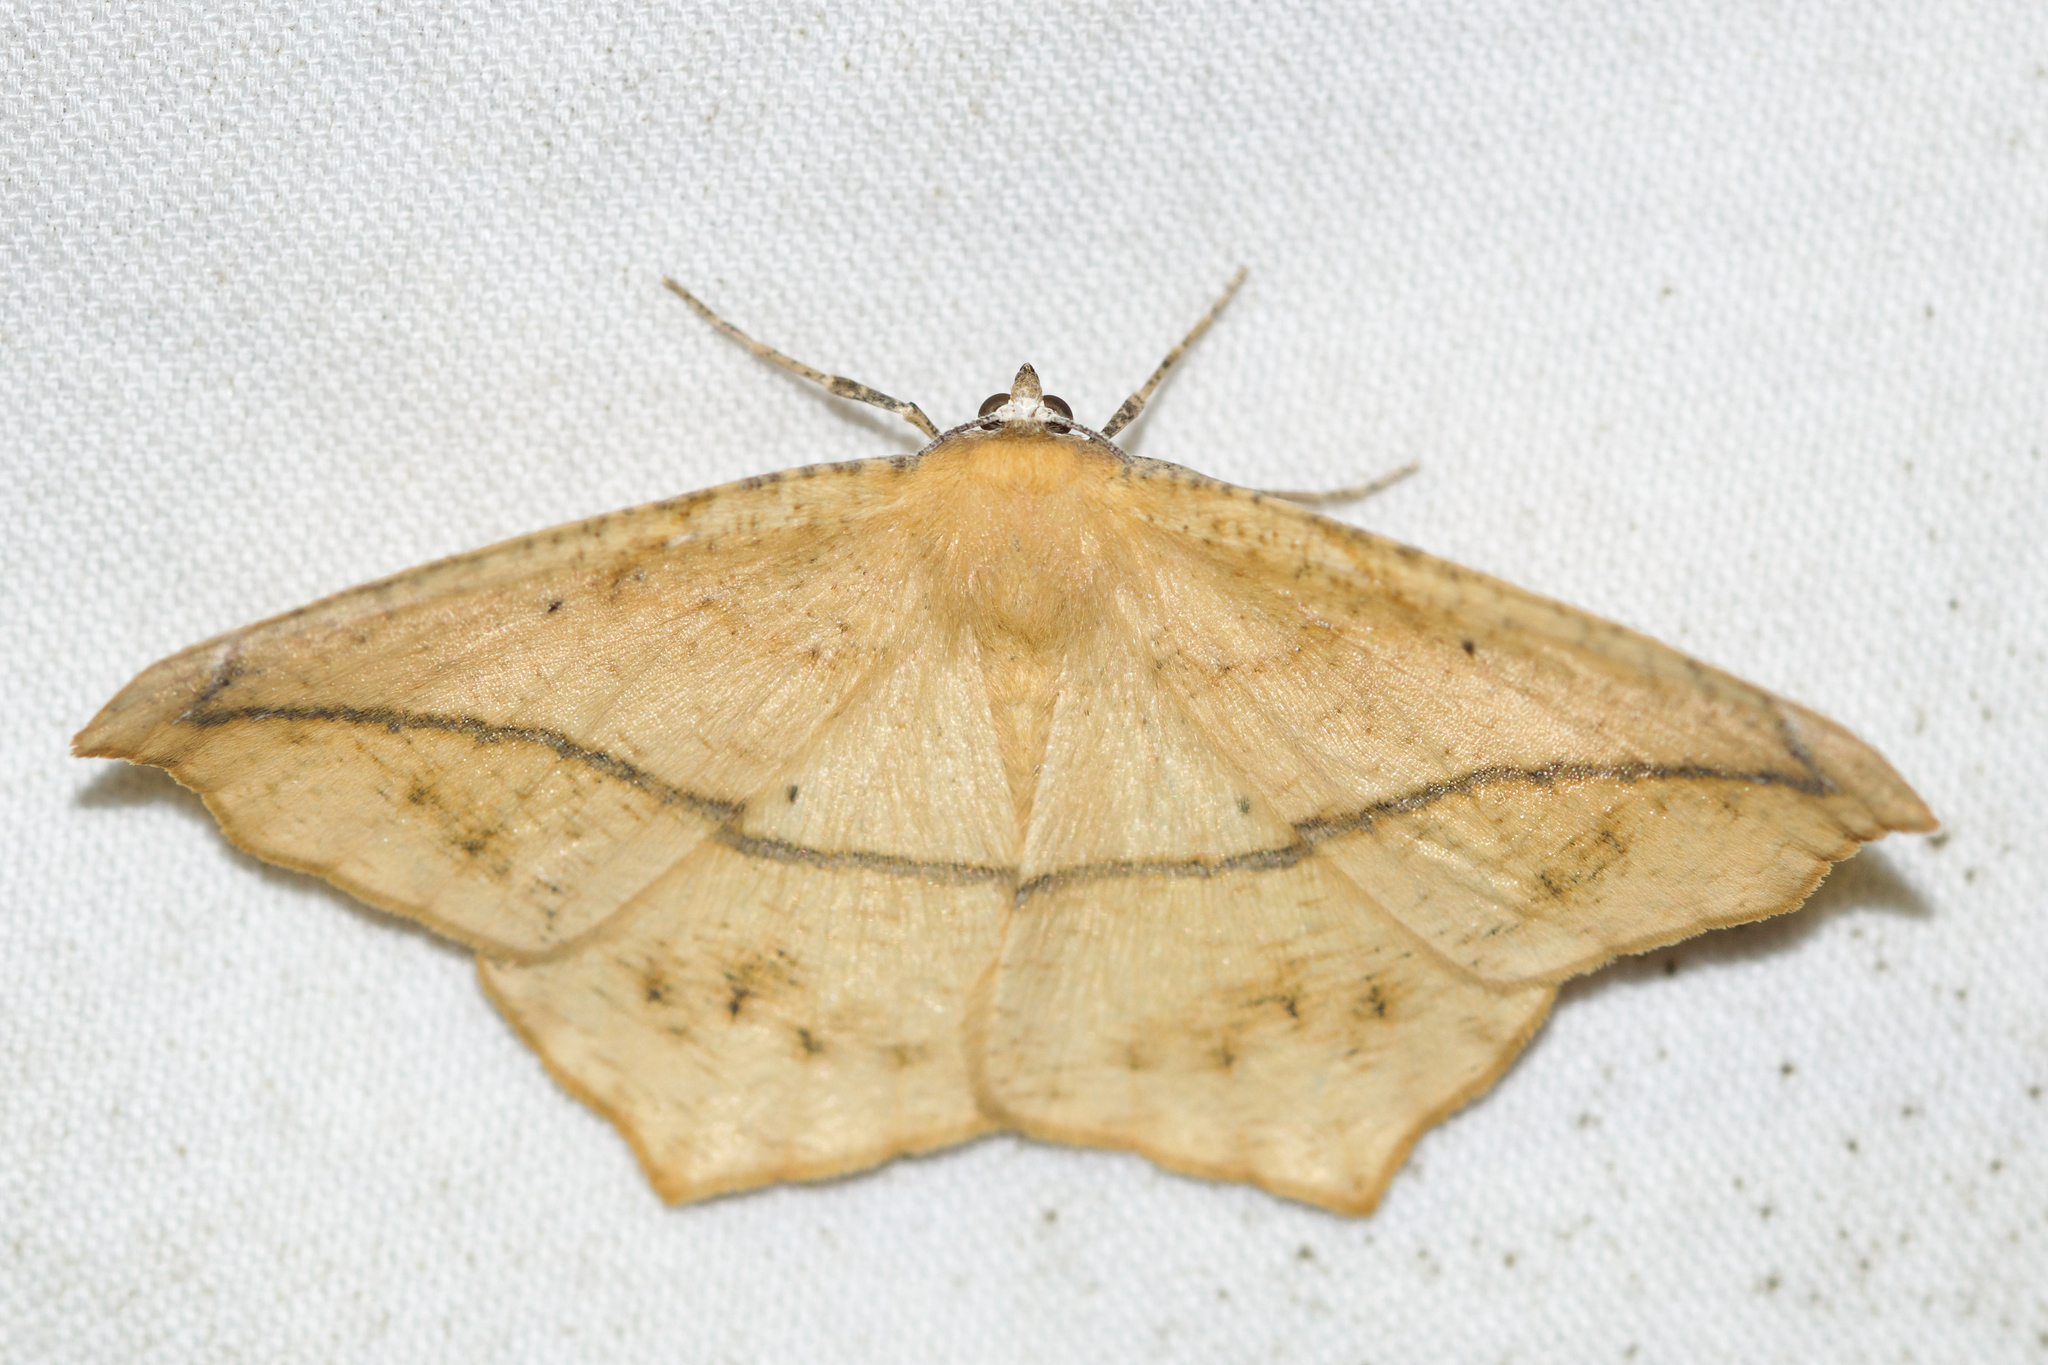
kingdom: Animalia
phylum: Arthropoda
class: Insecta
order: Lepidoptera
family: Geometridae
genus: Prochoerodes
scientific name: Prochoerodes lineola
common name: Large maple spanworm
